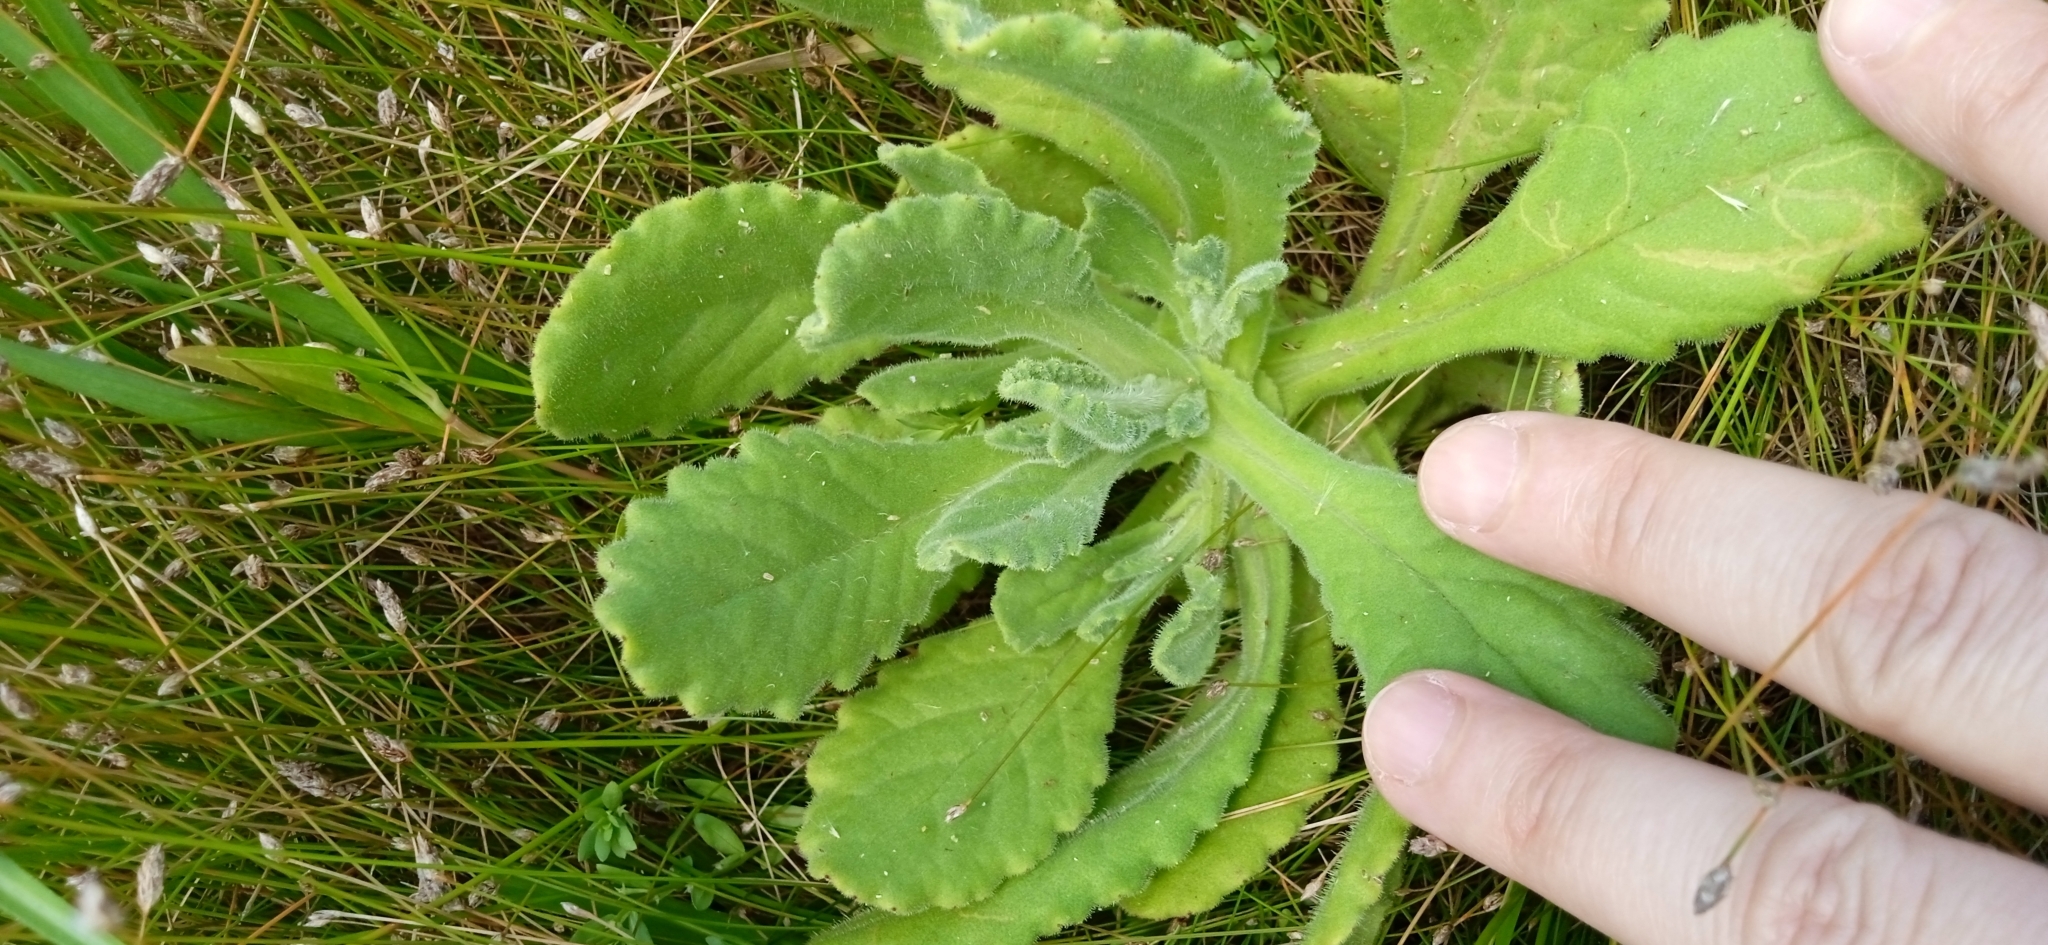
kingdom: Plantae
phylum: Tracheophyta
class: Magnoliopsida
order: Asterales
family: Asteraceae
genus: Senecio
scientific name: Senecio selloi
